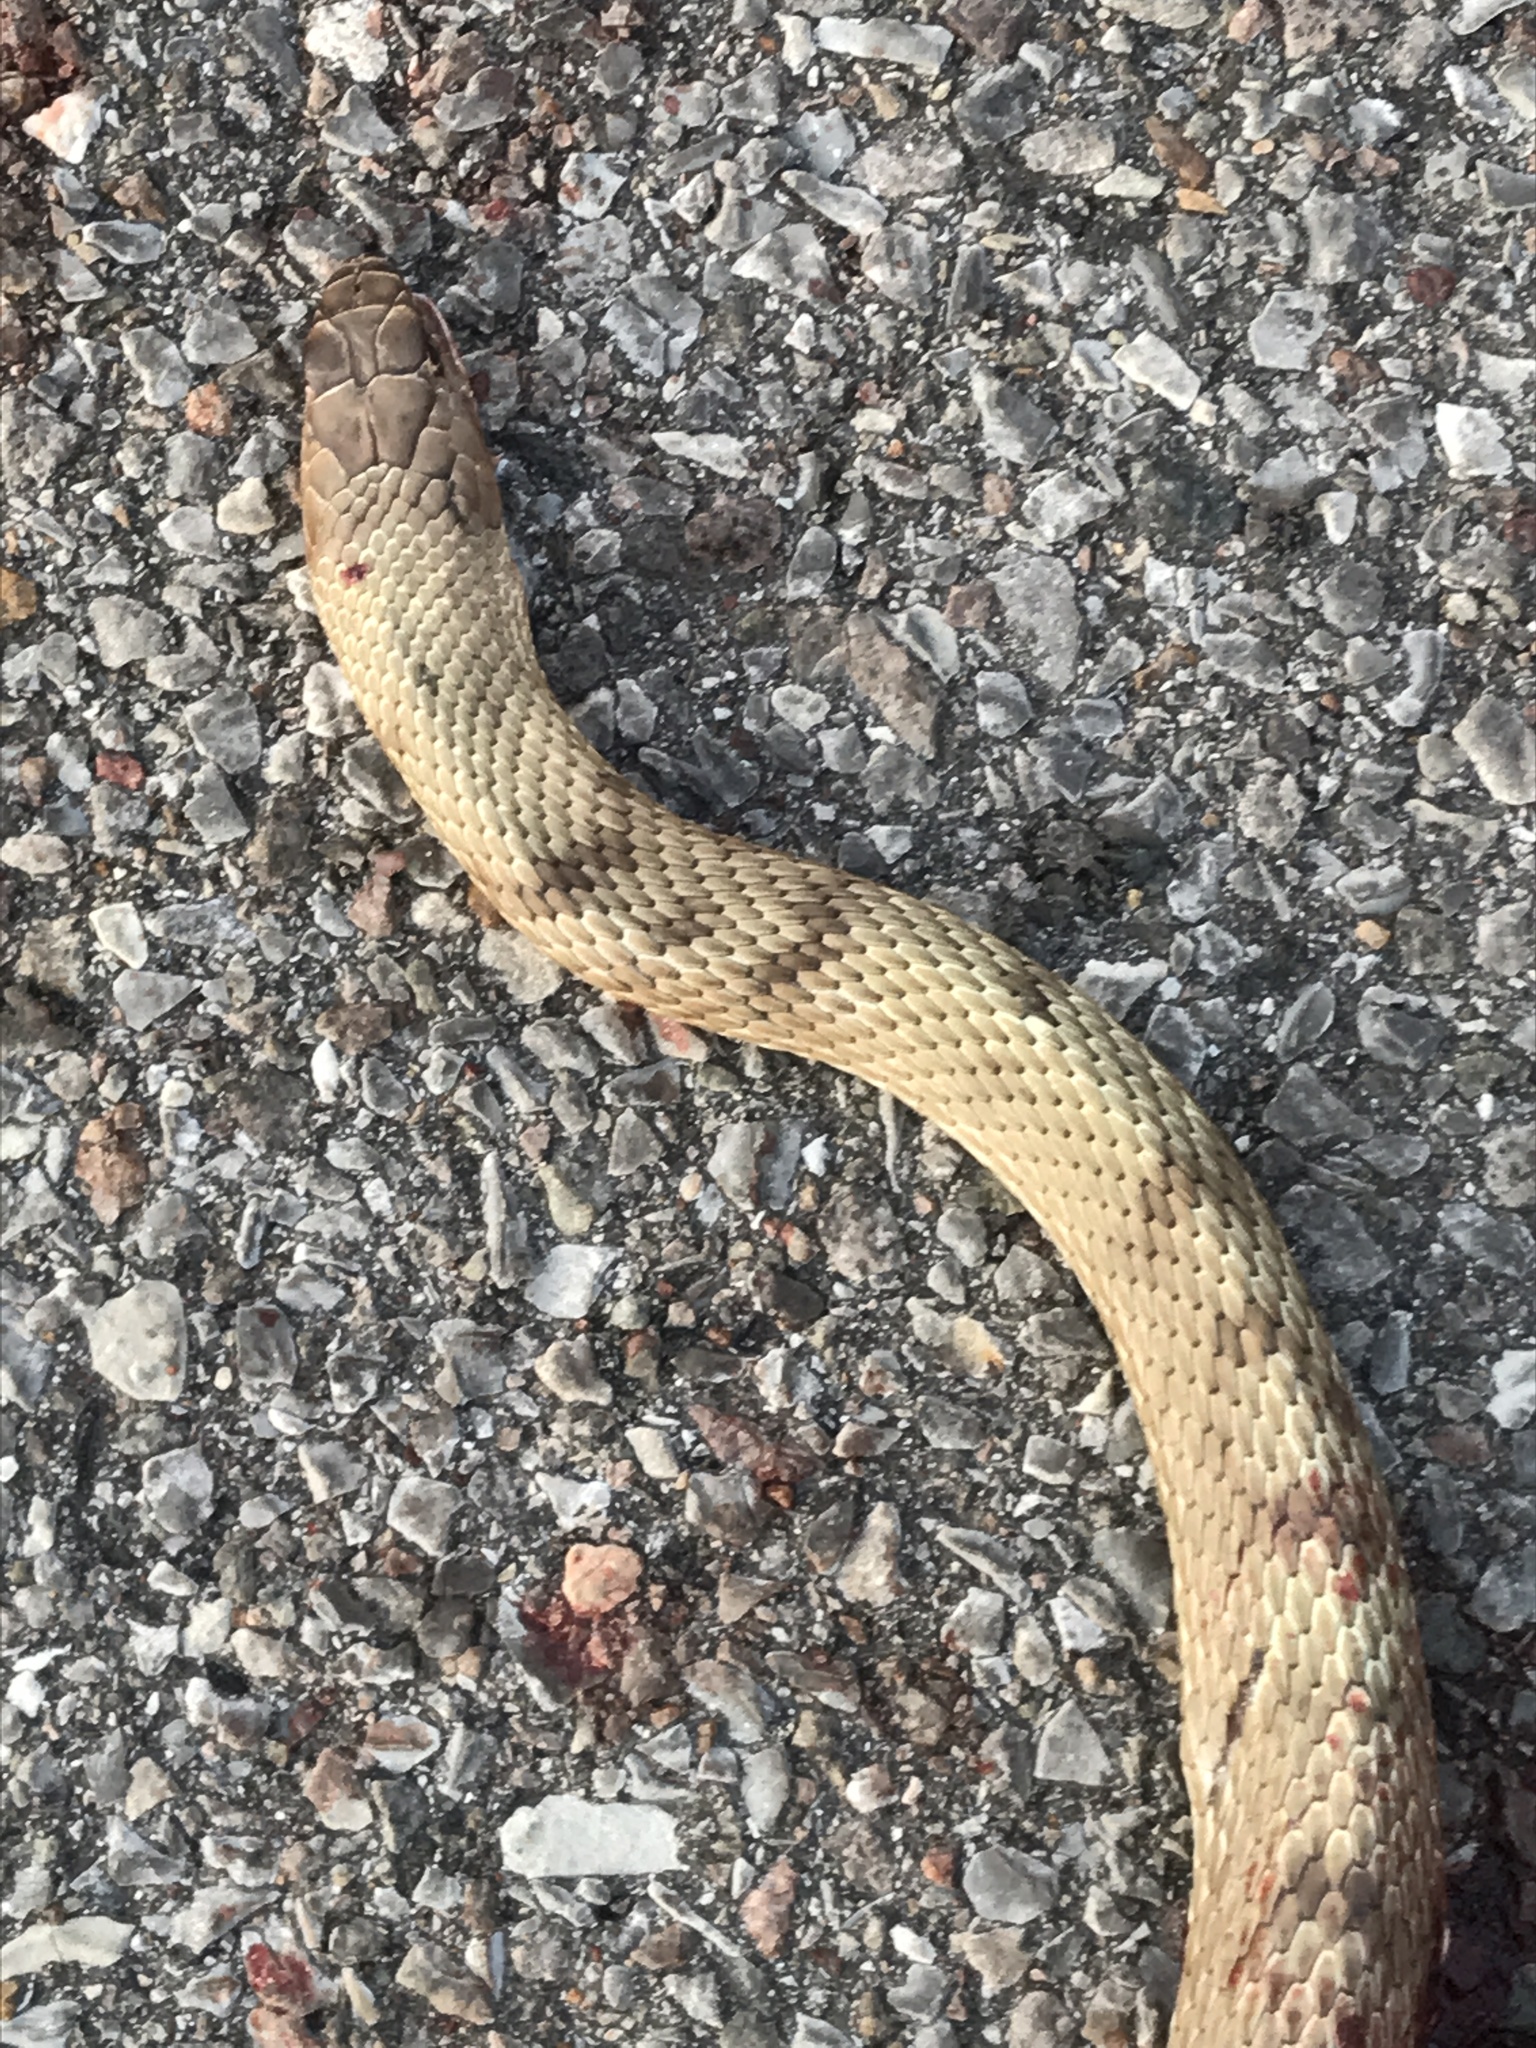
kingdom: Animalia
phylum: Chordata
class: Squamata
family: Colubridae
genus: Masticophis
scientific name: Masticophis flagellum
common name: Coachwhip
